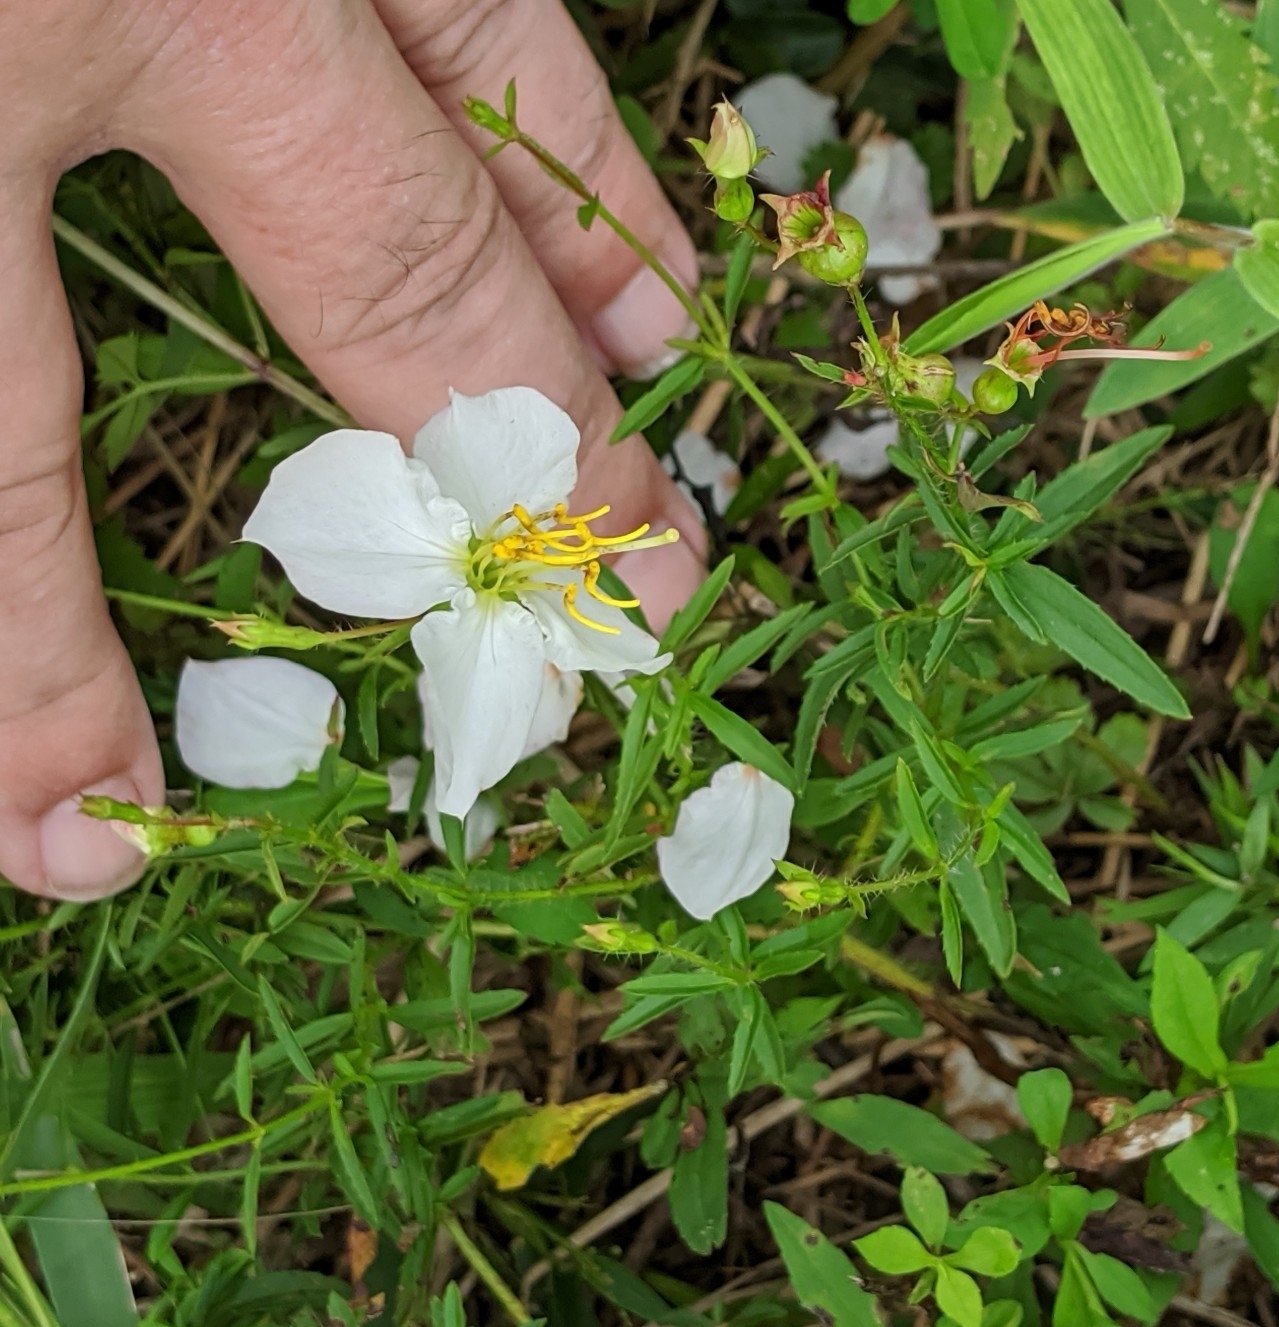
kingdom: Plantae
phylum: Tracheophyta
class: Magnoliopsida
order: Myrtales
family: Melastomataceae
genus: Rhexia
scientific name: Rhexia mariana
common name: Dull meadow-pitcher
